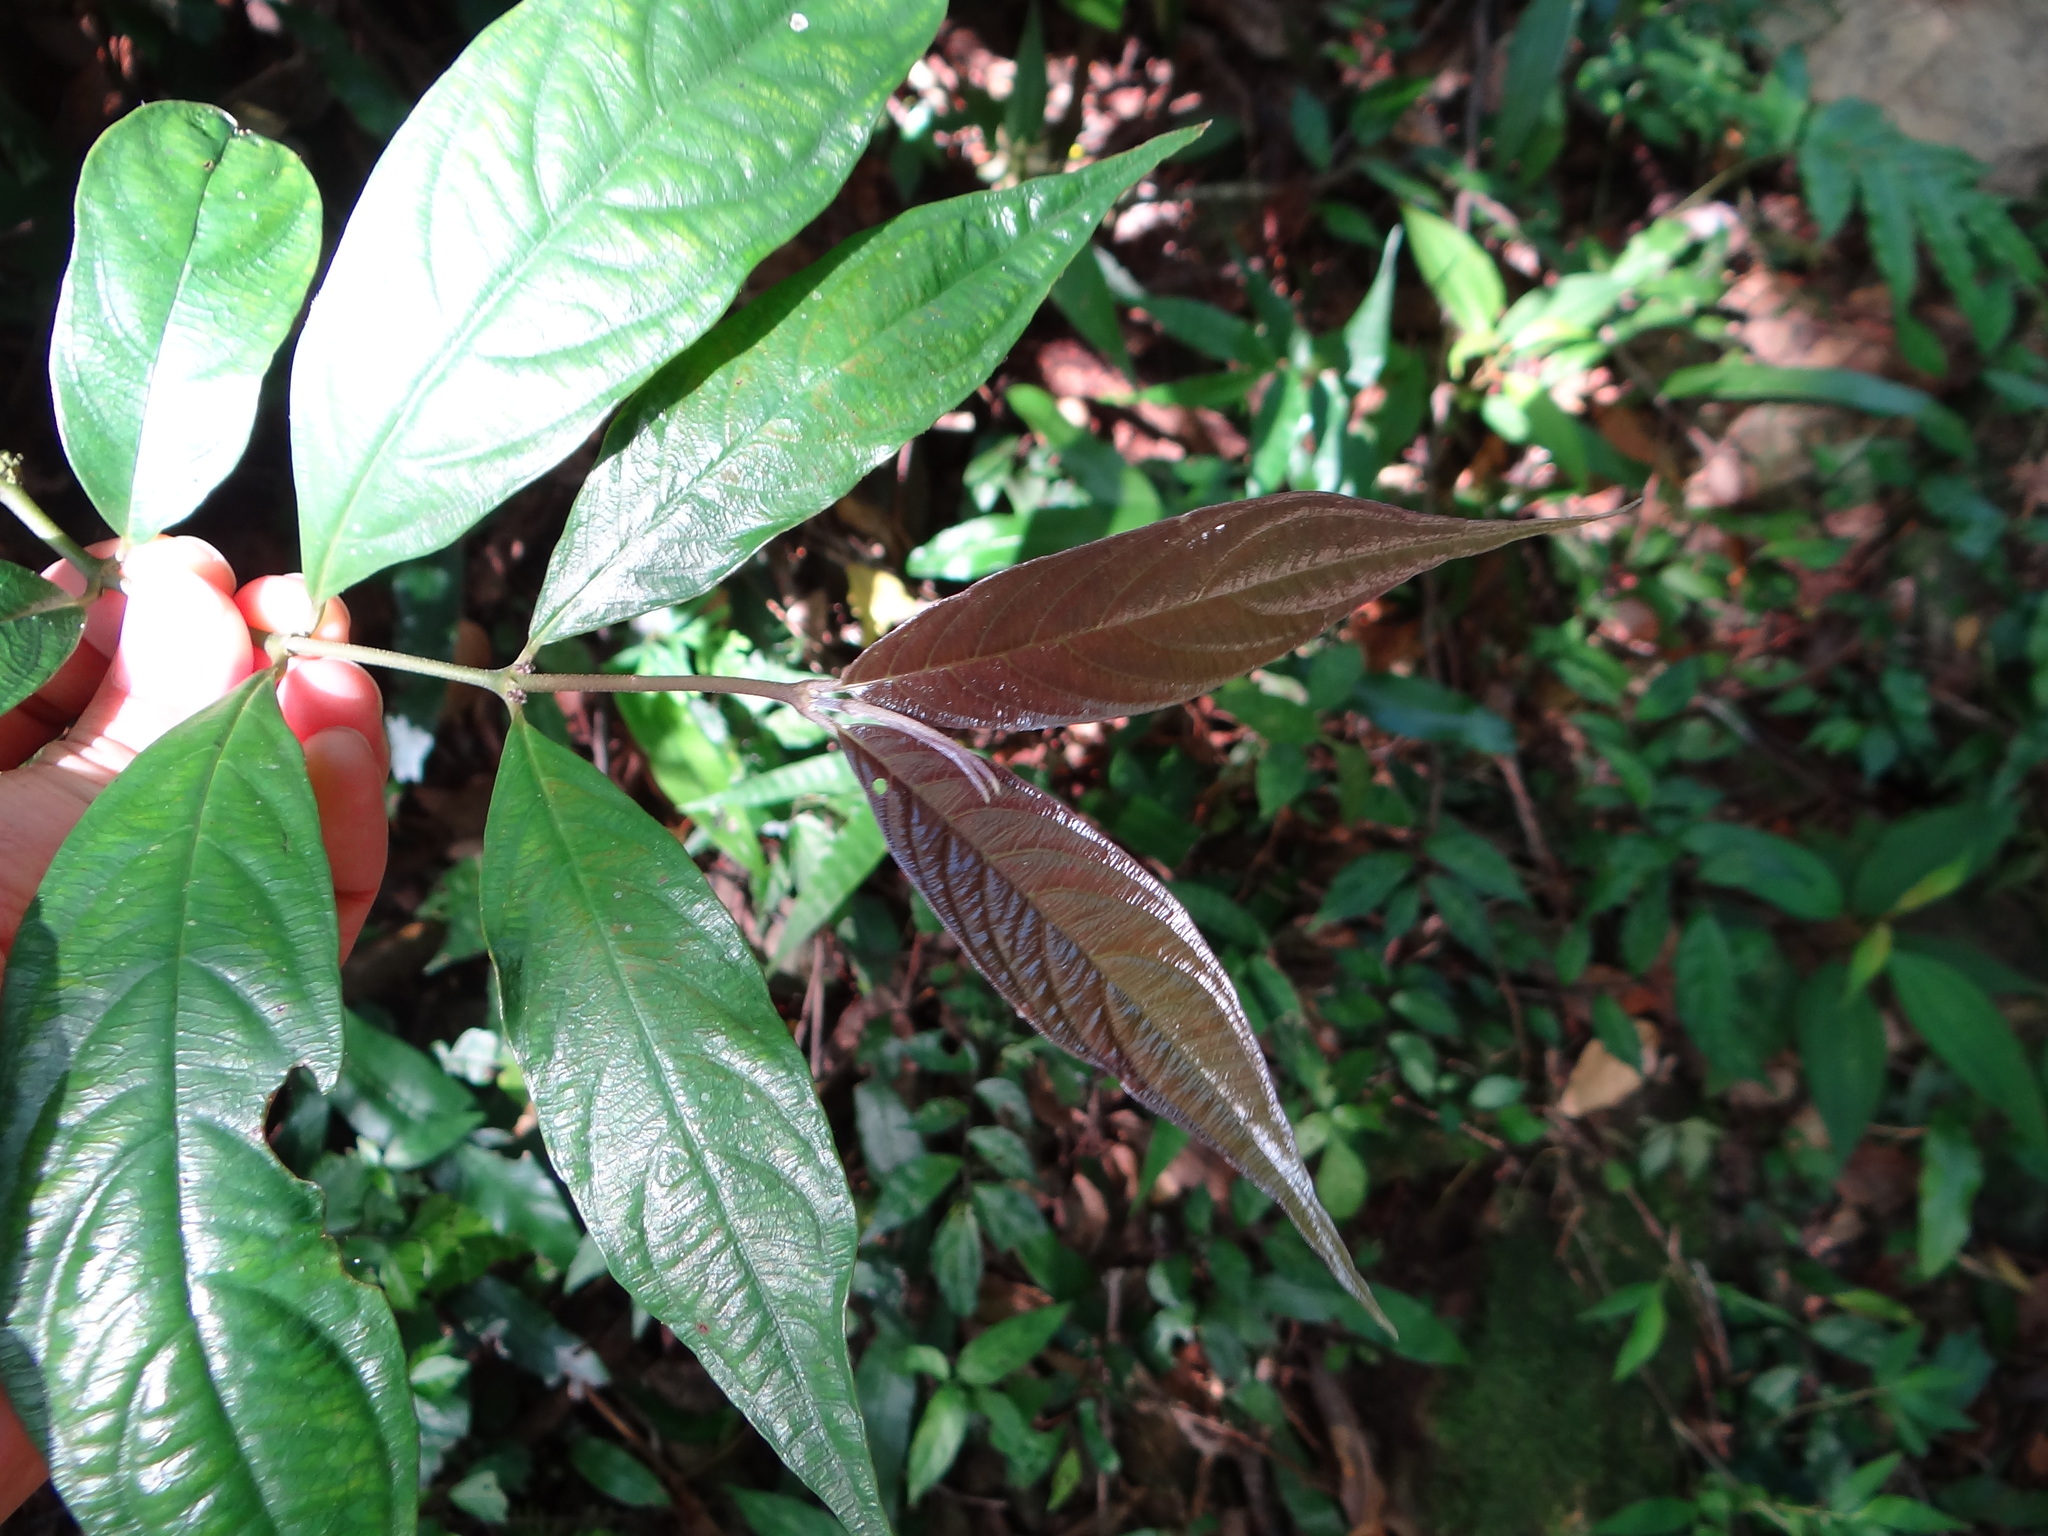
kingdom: Plantae
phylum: Tracheophyta
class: Magnoliopsida
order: Gentianales
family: Rubiaceae
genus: Lasianthus
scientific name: Lasianthus fordii
